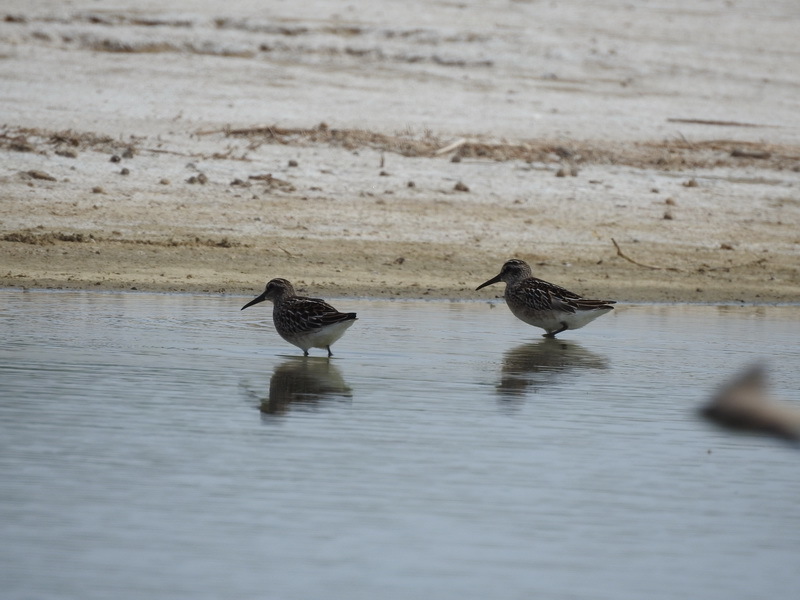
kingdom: Animalia
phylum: Chordata
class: Aves
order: Charadriiformes
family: Scolopacidae
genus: Calidris
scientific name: Calidris falcinellus
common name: Broad-billed sandpiper
